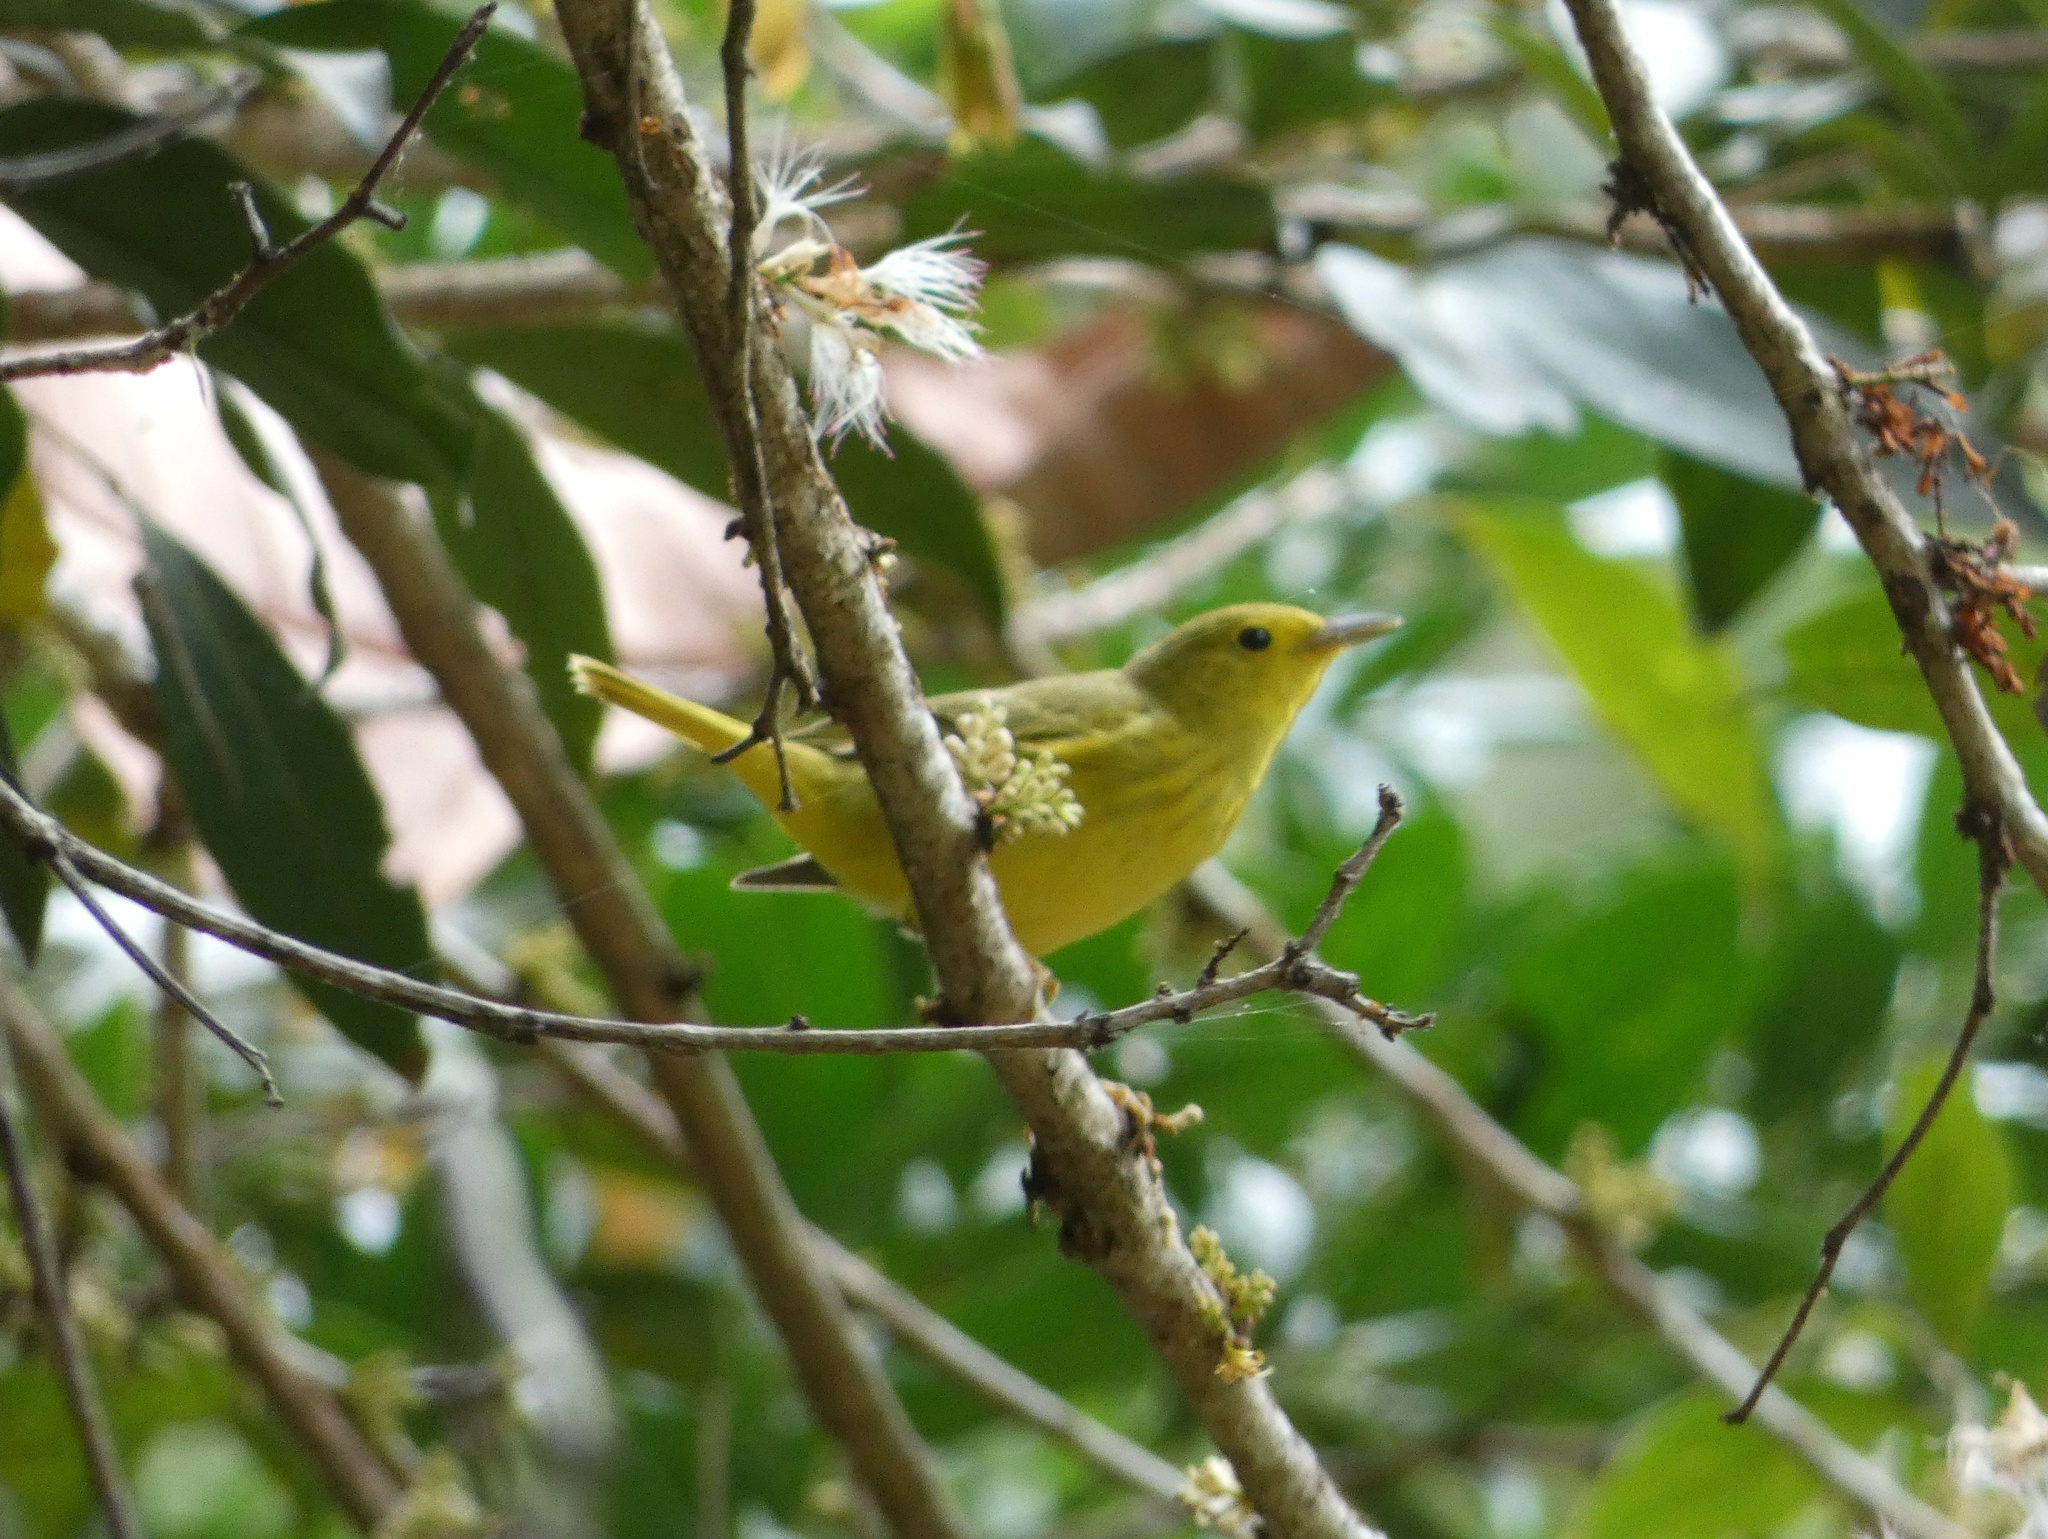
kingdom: Animalia
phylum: Chordata
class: Aves
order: Passeriformes
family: Parulidae
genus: Setophaga
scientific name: Setophaga petechia
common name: Yellow warbler
